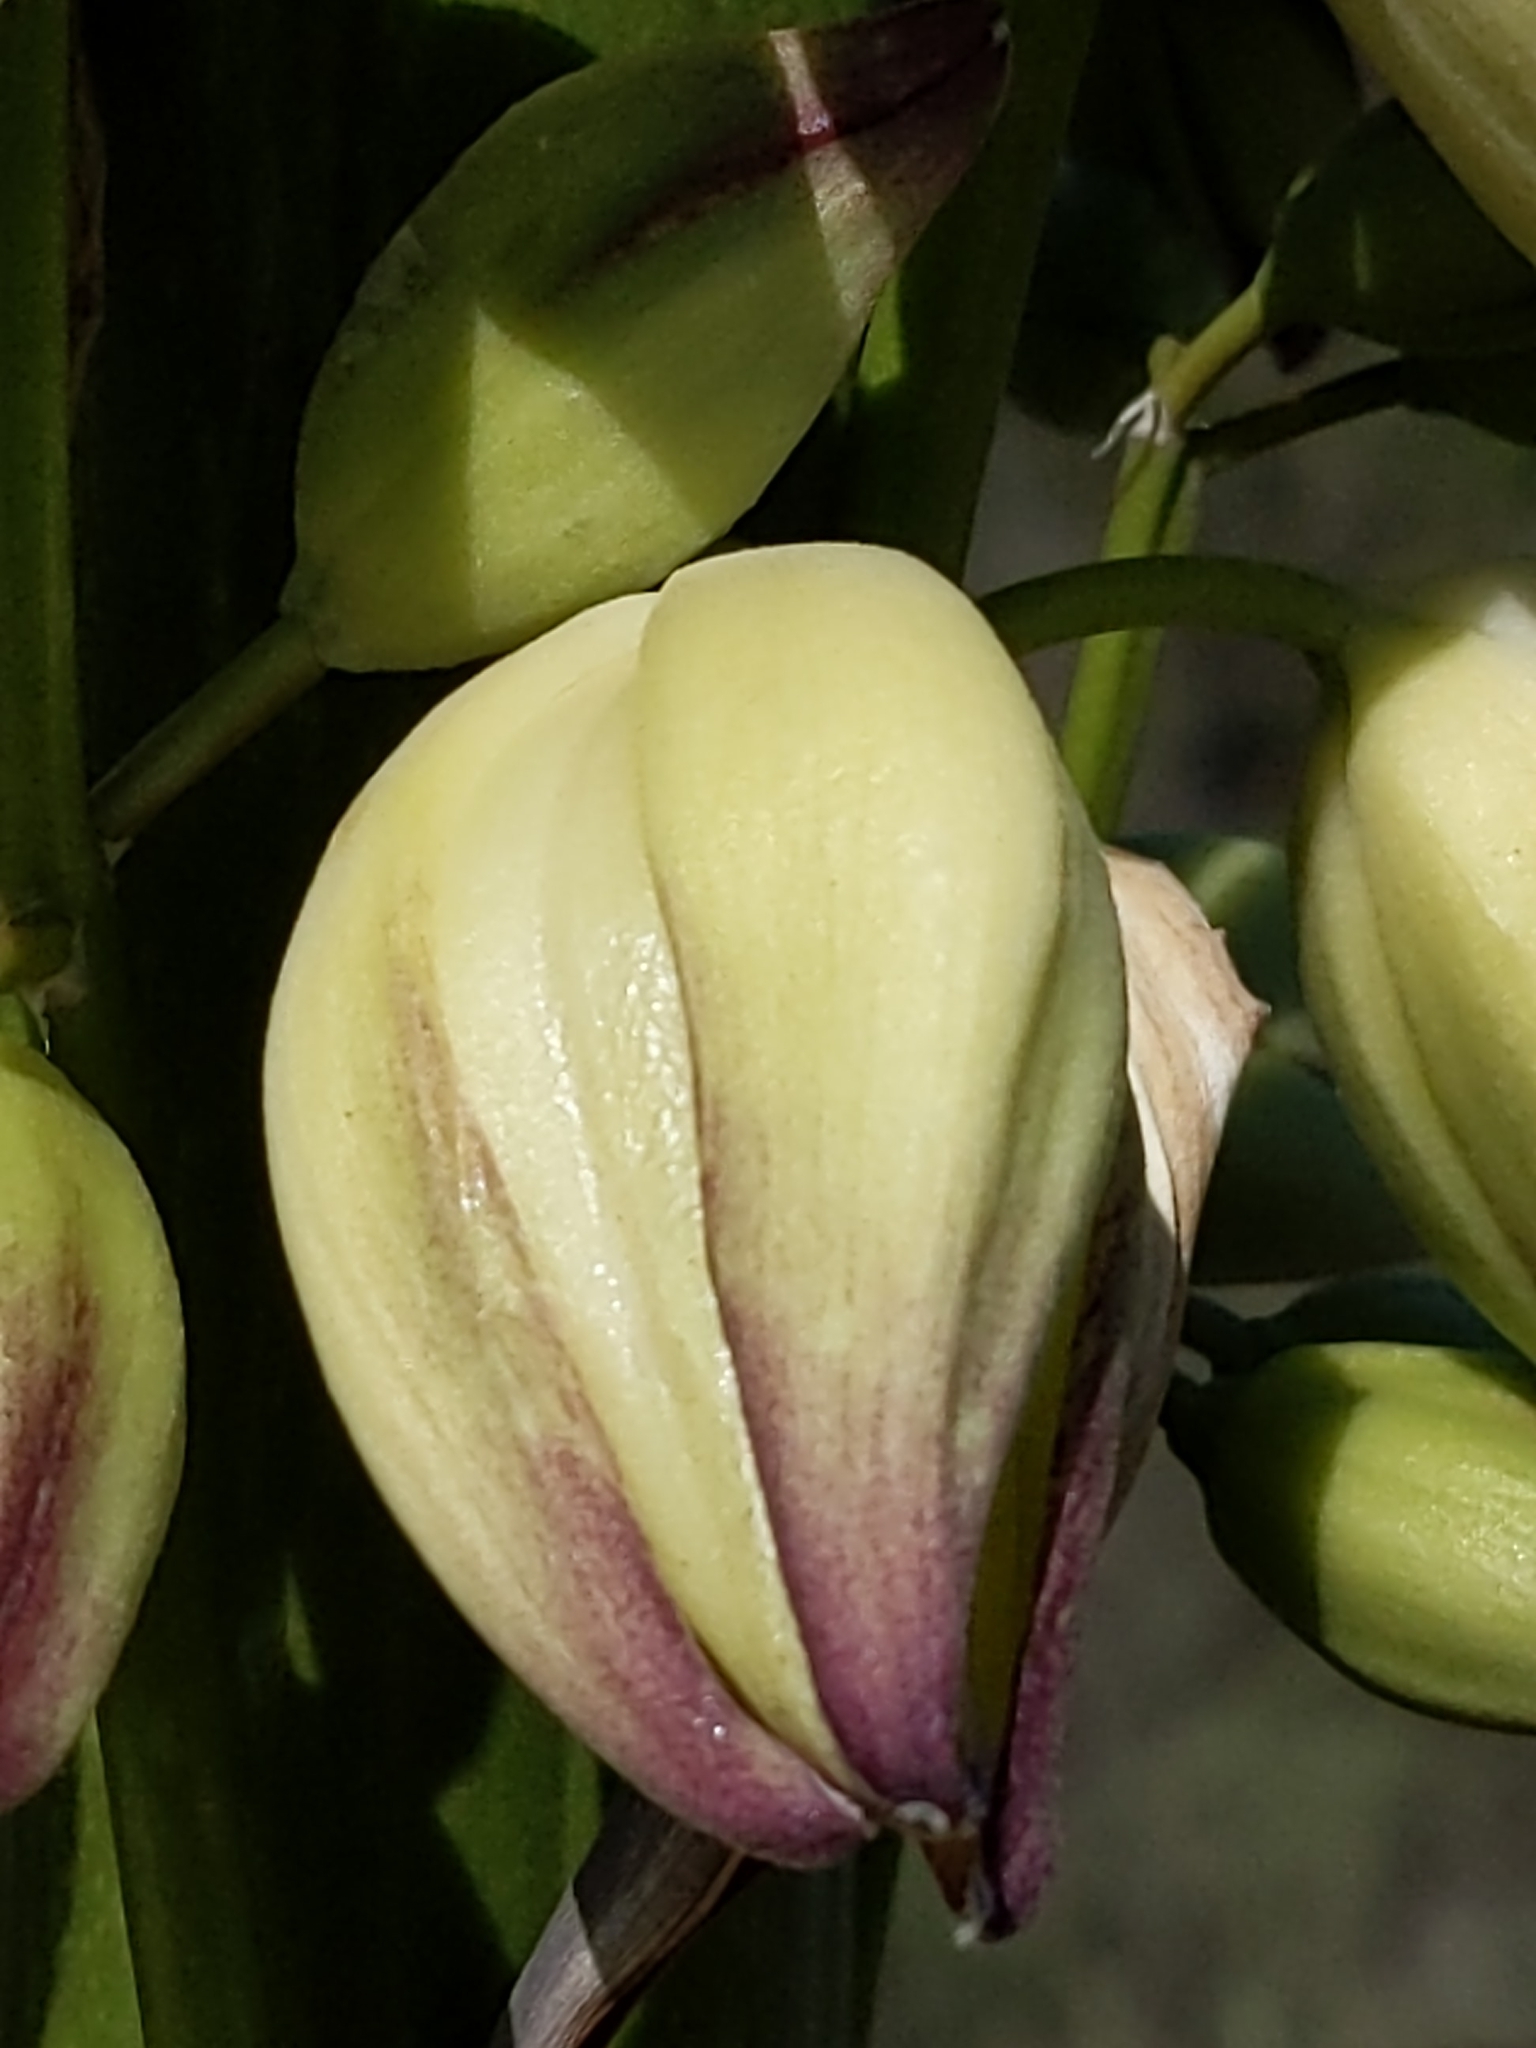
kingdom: Plantae
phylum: Tracheophyta
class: Liliopsida
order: Asparagales
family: Asparagaceae
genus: Hesperoyucca
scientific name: Hesperoyucca whipplei
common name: Our lord's-candle
